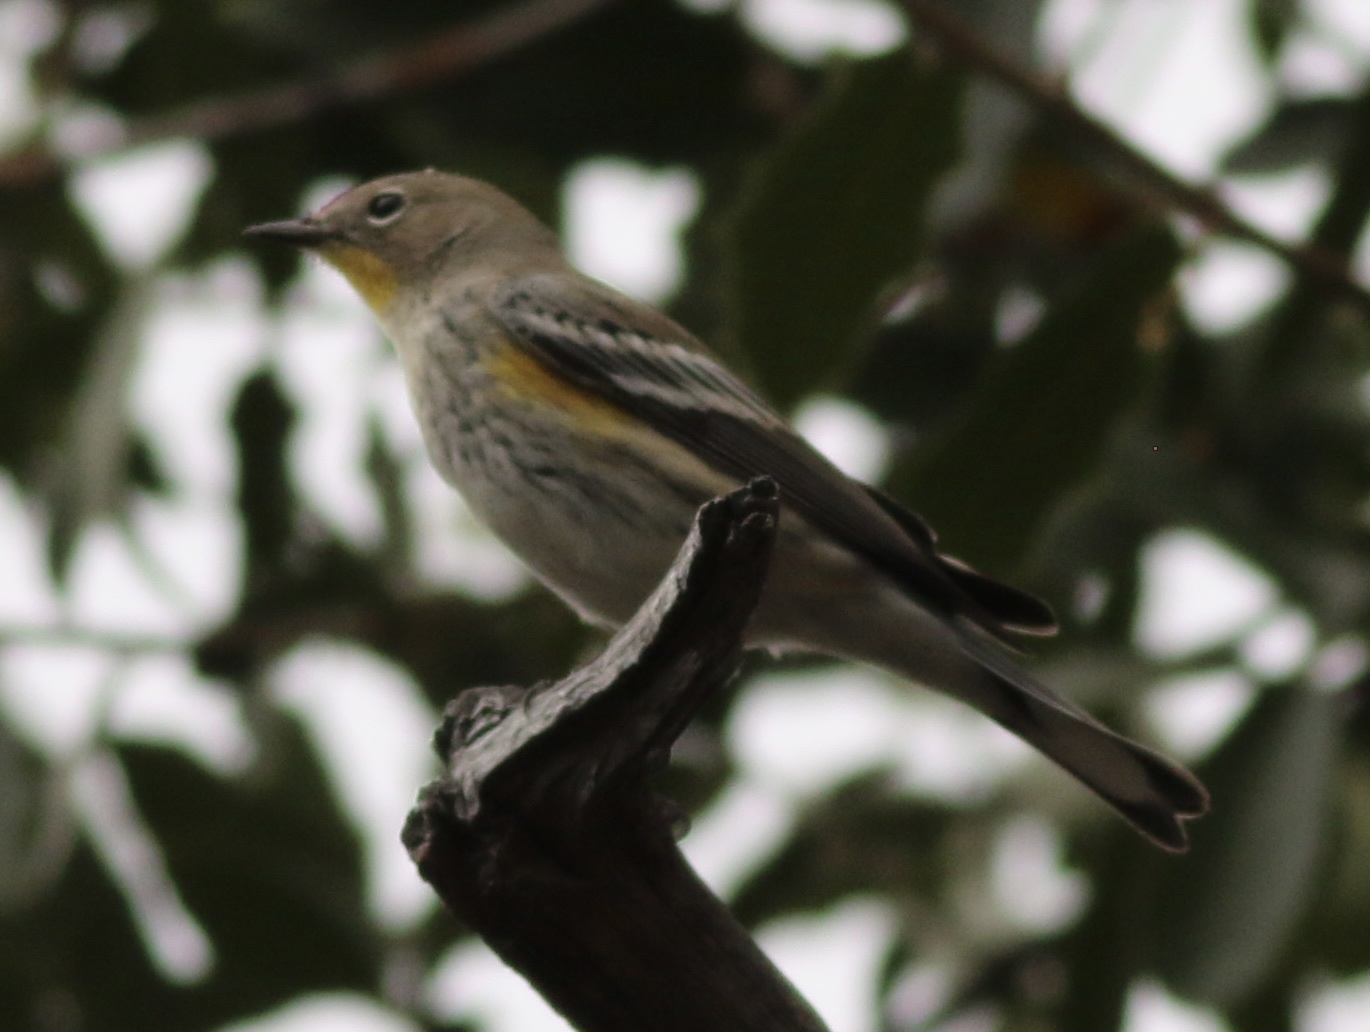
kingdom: Animalia
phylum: Chordata
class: Aves
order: Passeriformes
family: Parulidae
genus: Setophaga
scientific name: Setophaga coronata
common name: Myrtle warbler
